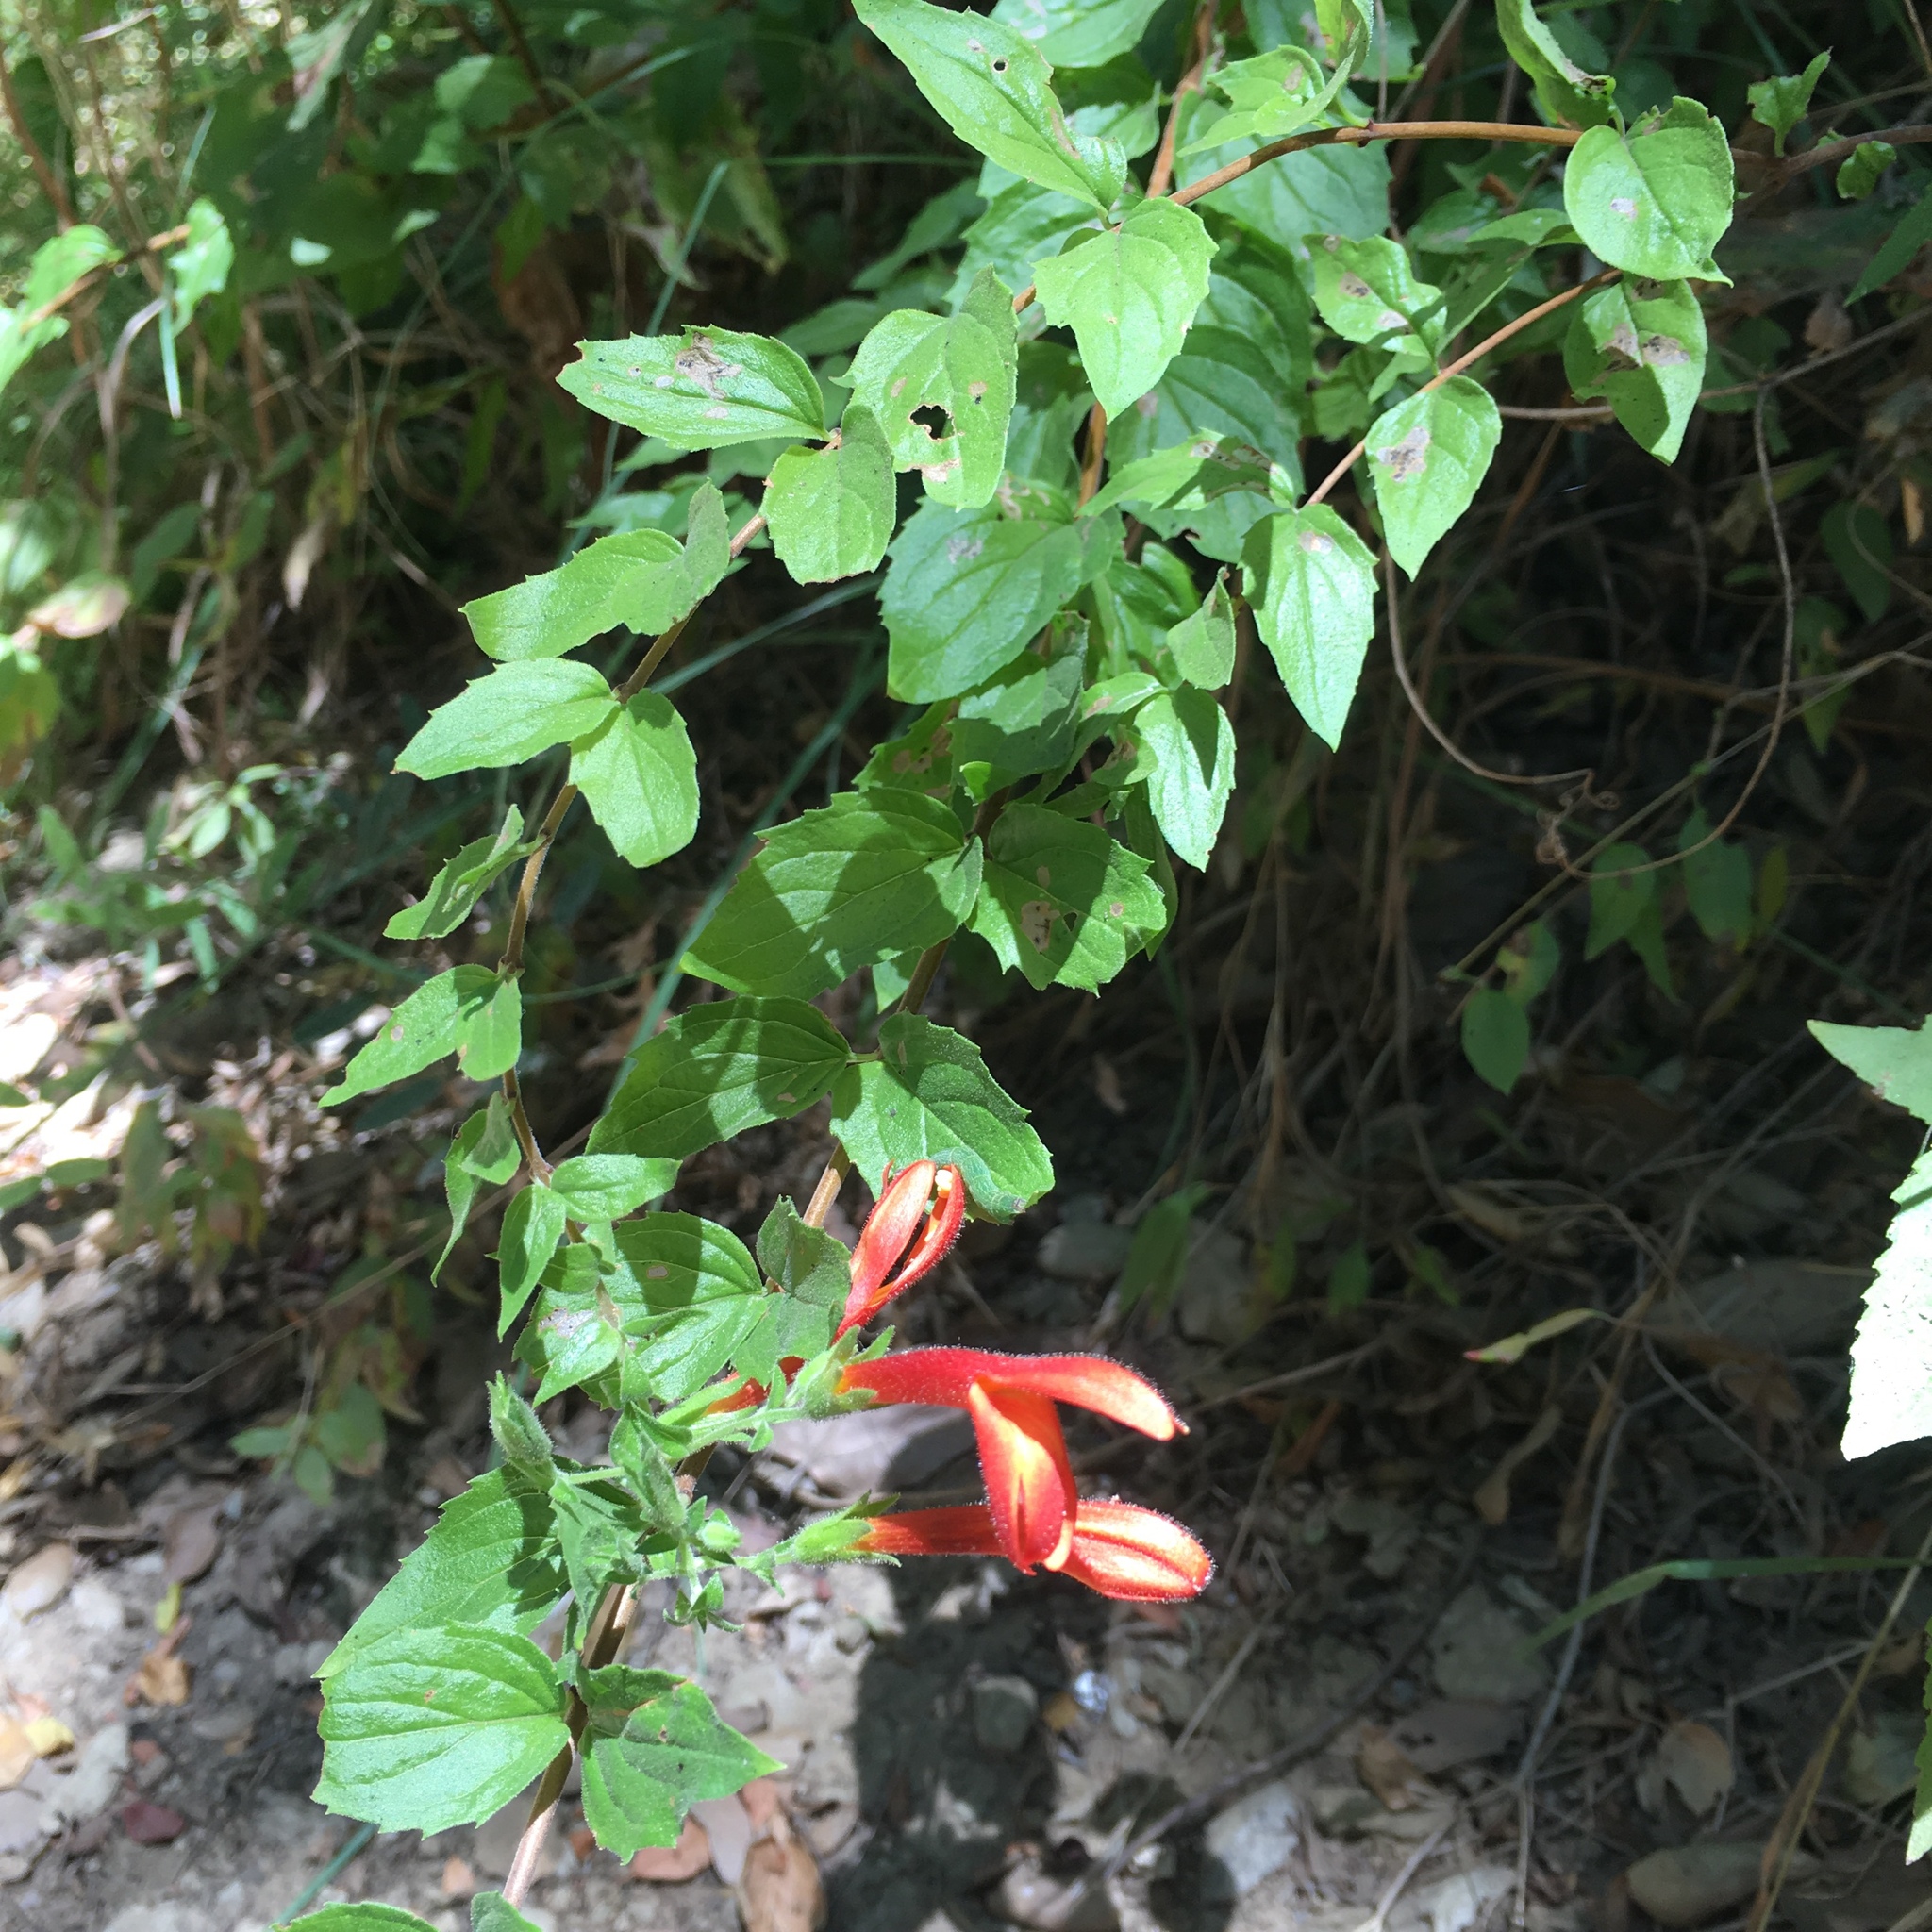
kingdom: Plantae
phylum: Tracheophyta
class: Magnoliopsida
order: Lamiales
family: Plantaginaceae
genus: Keckiella
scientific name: Keckiella cordifolia
